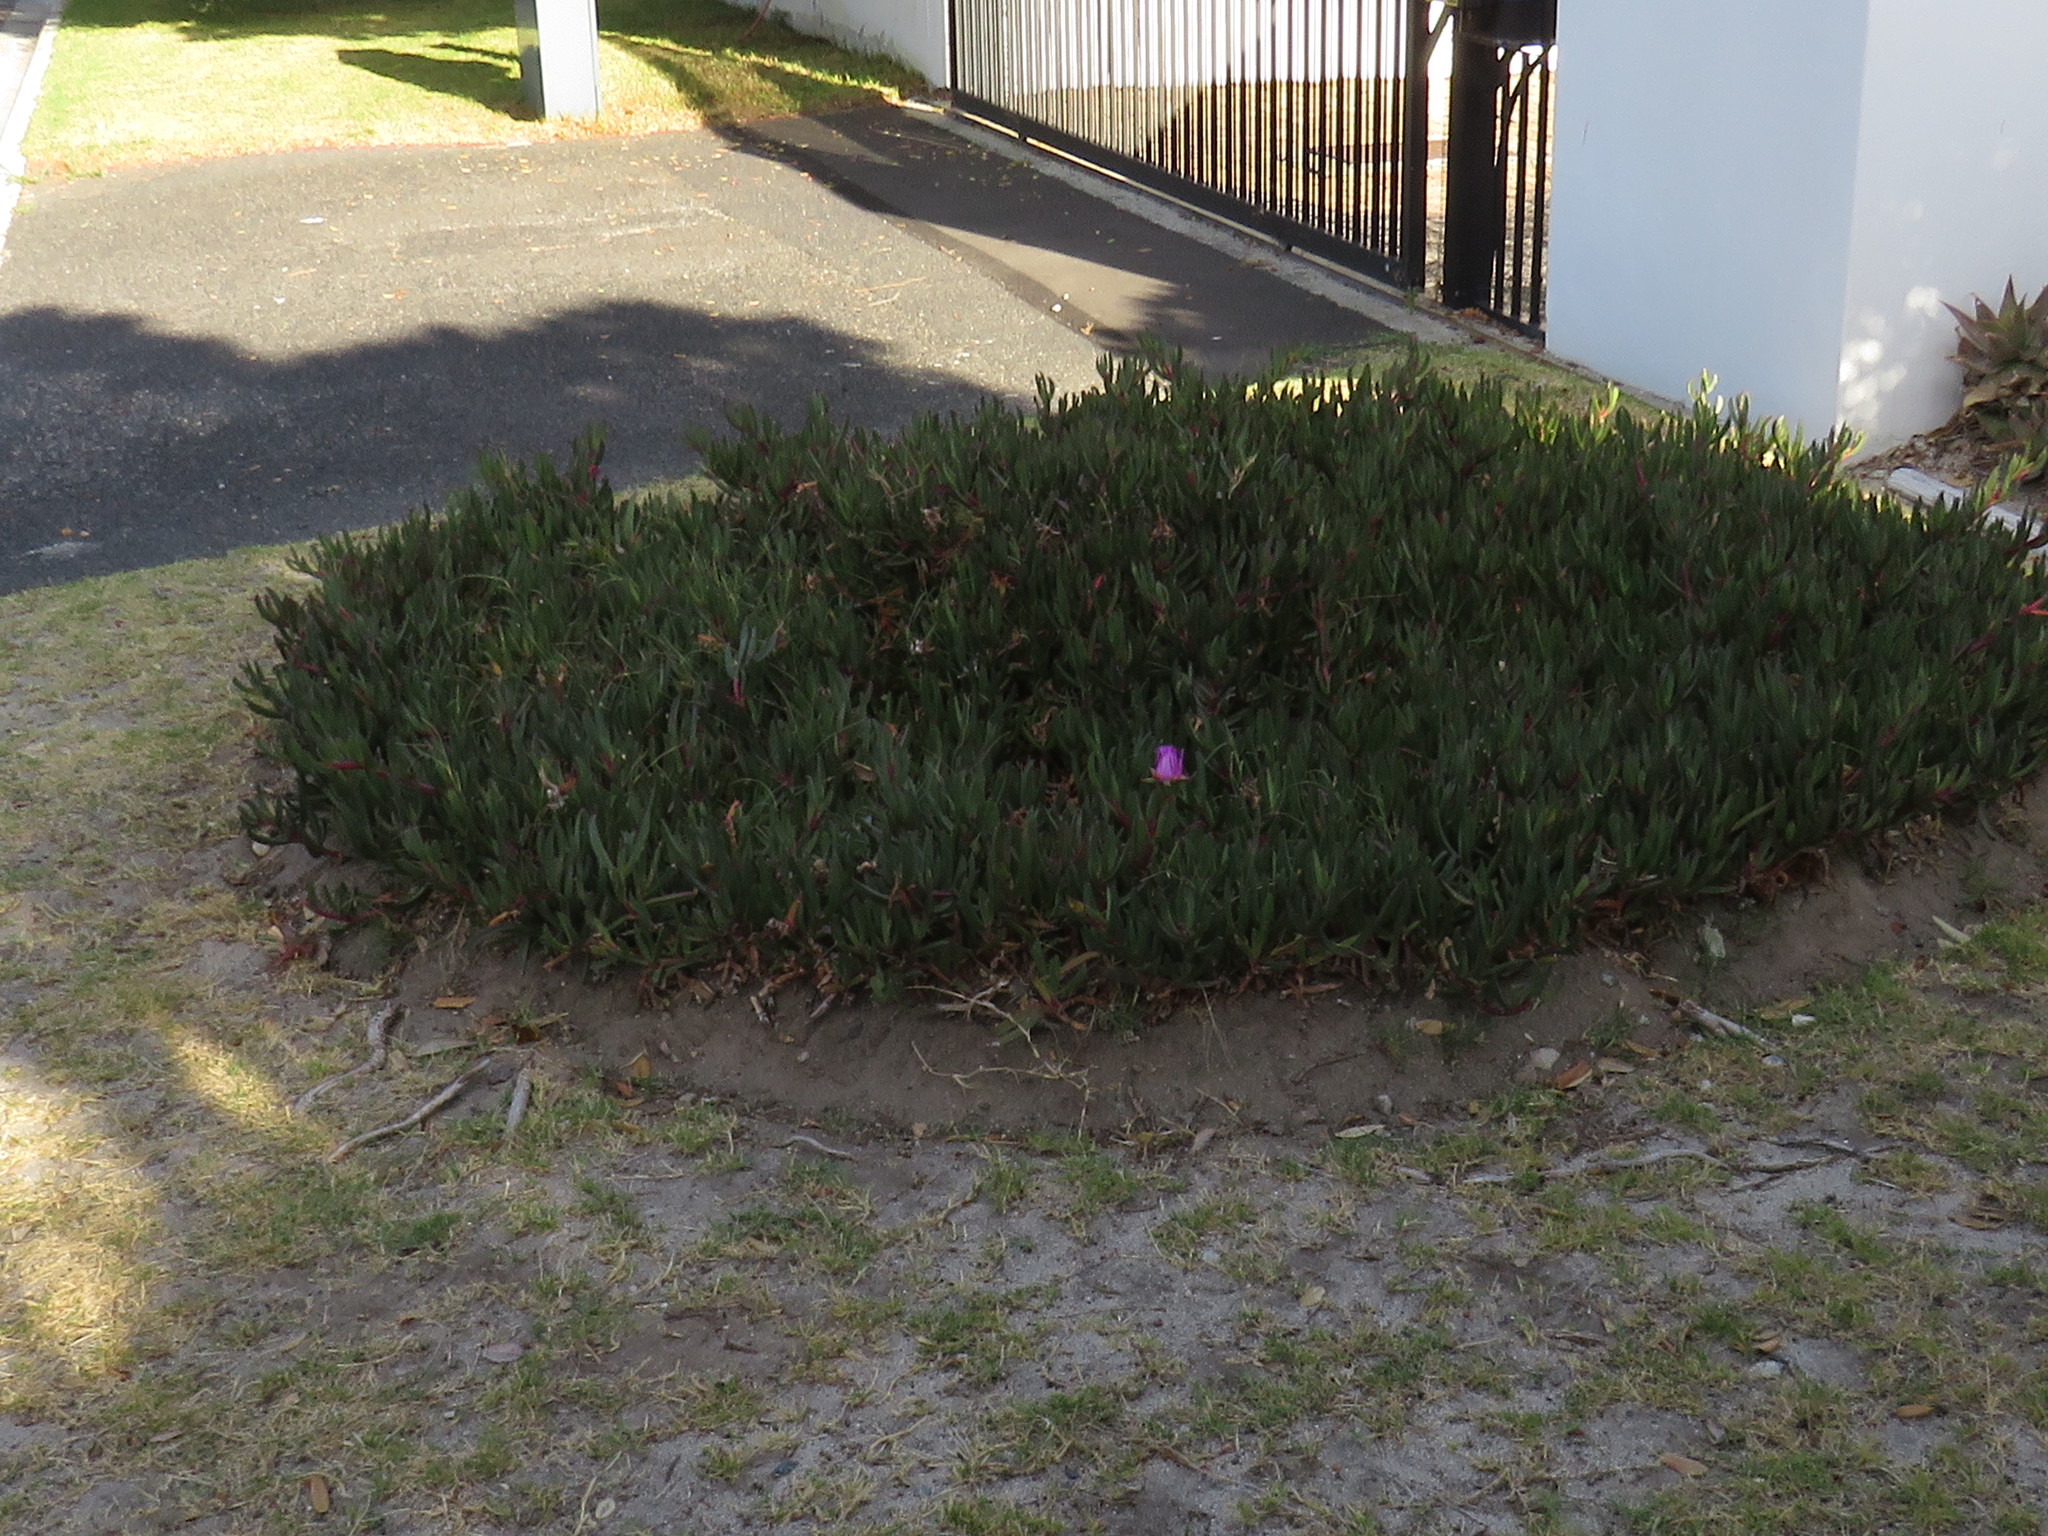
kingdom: Plantae
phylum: Tracheophyta
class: Magnoliopsida
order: Caryophyllales
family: Aizoaceae
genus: Carpobrotus
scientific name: Carpobrotus acinaciformis
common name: Sally-my-handsome
